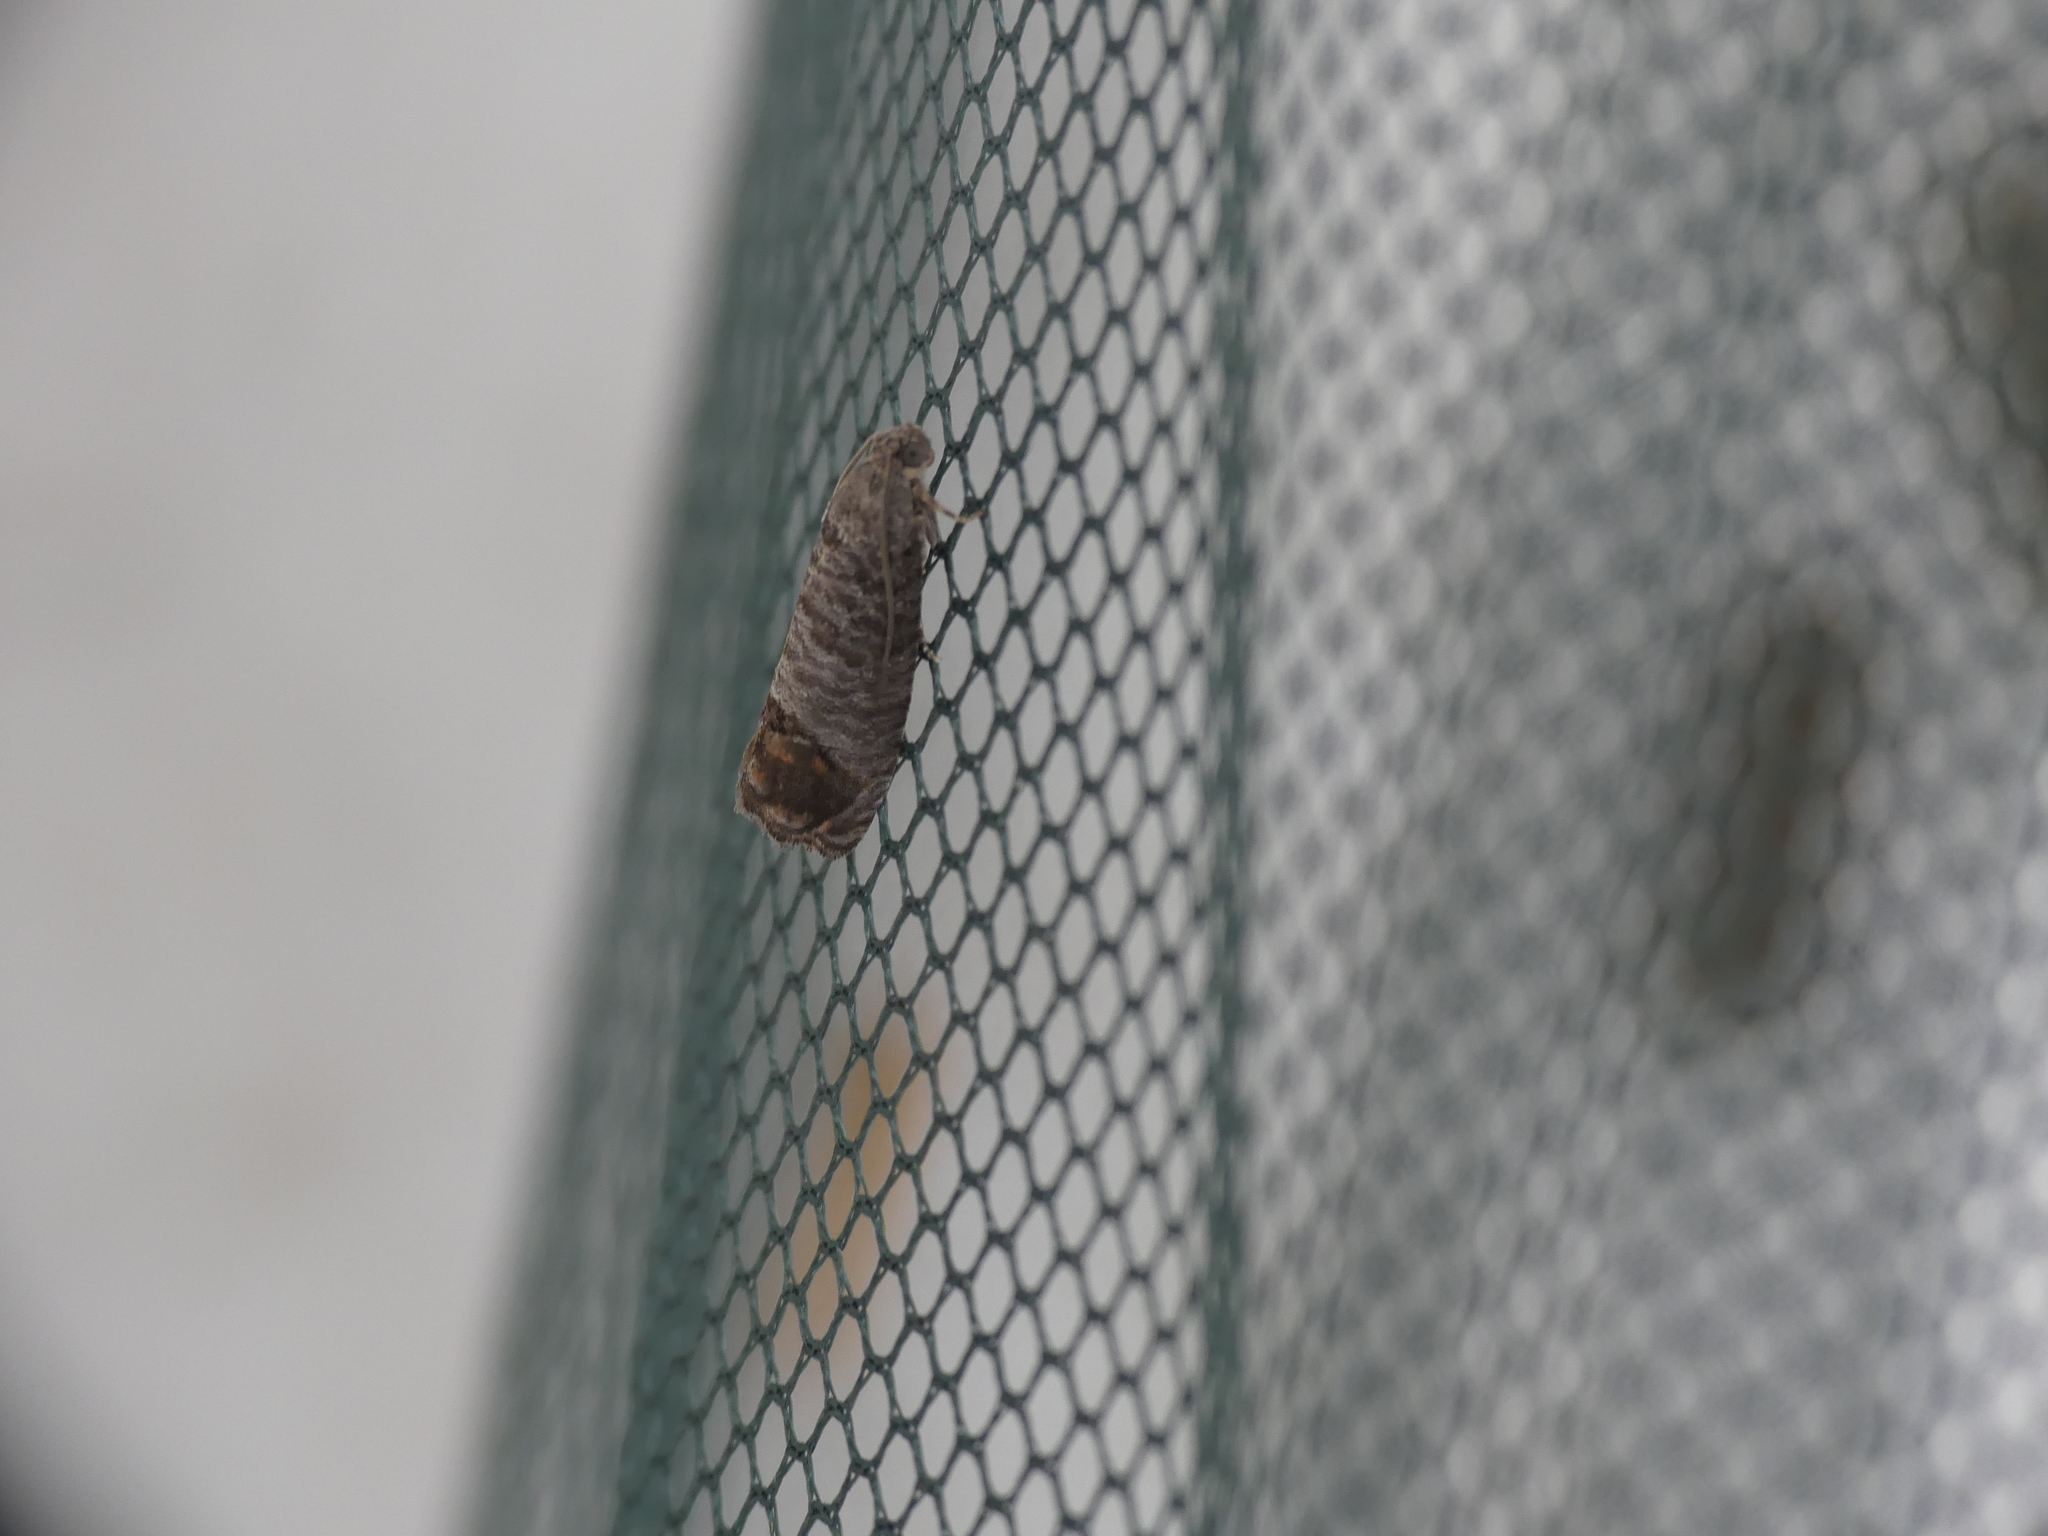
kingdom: Animalia
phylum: Arthropoda
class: Insecta
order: Lepidoptera
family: Tortricidae
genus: Cydia
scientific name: Cydia pomonella
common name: Codling moth
